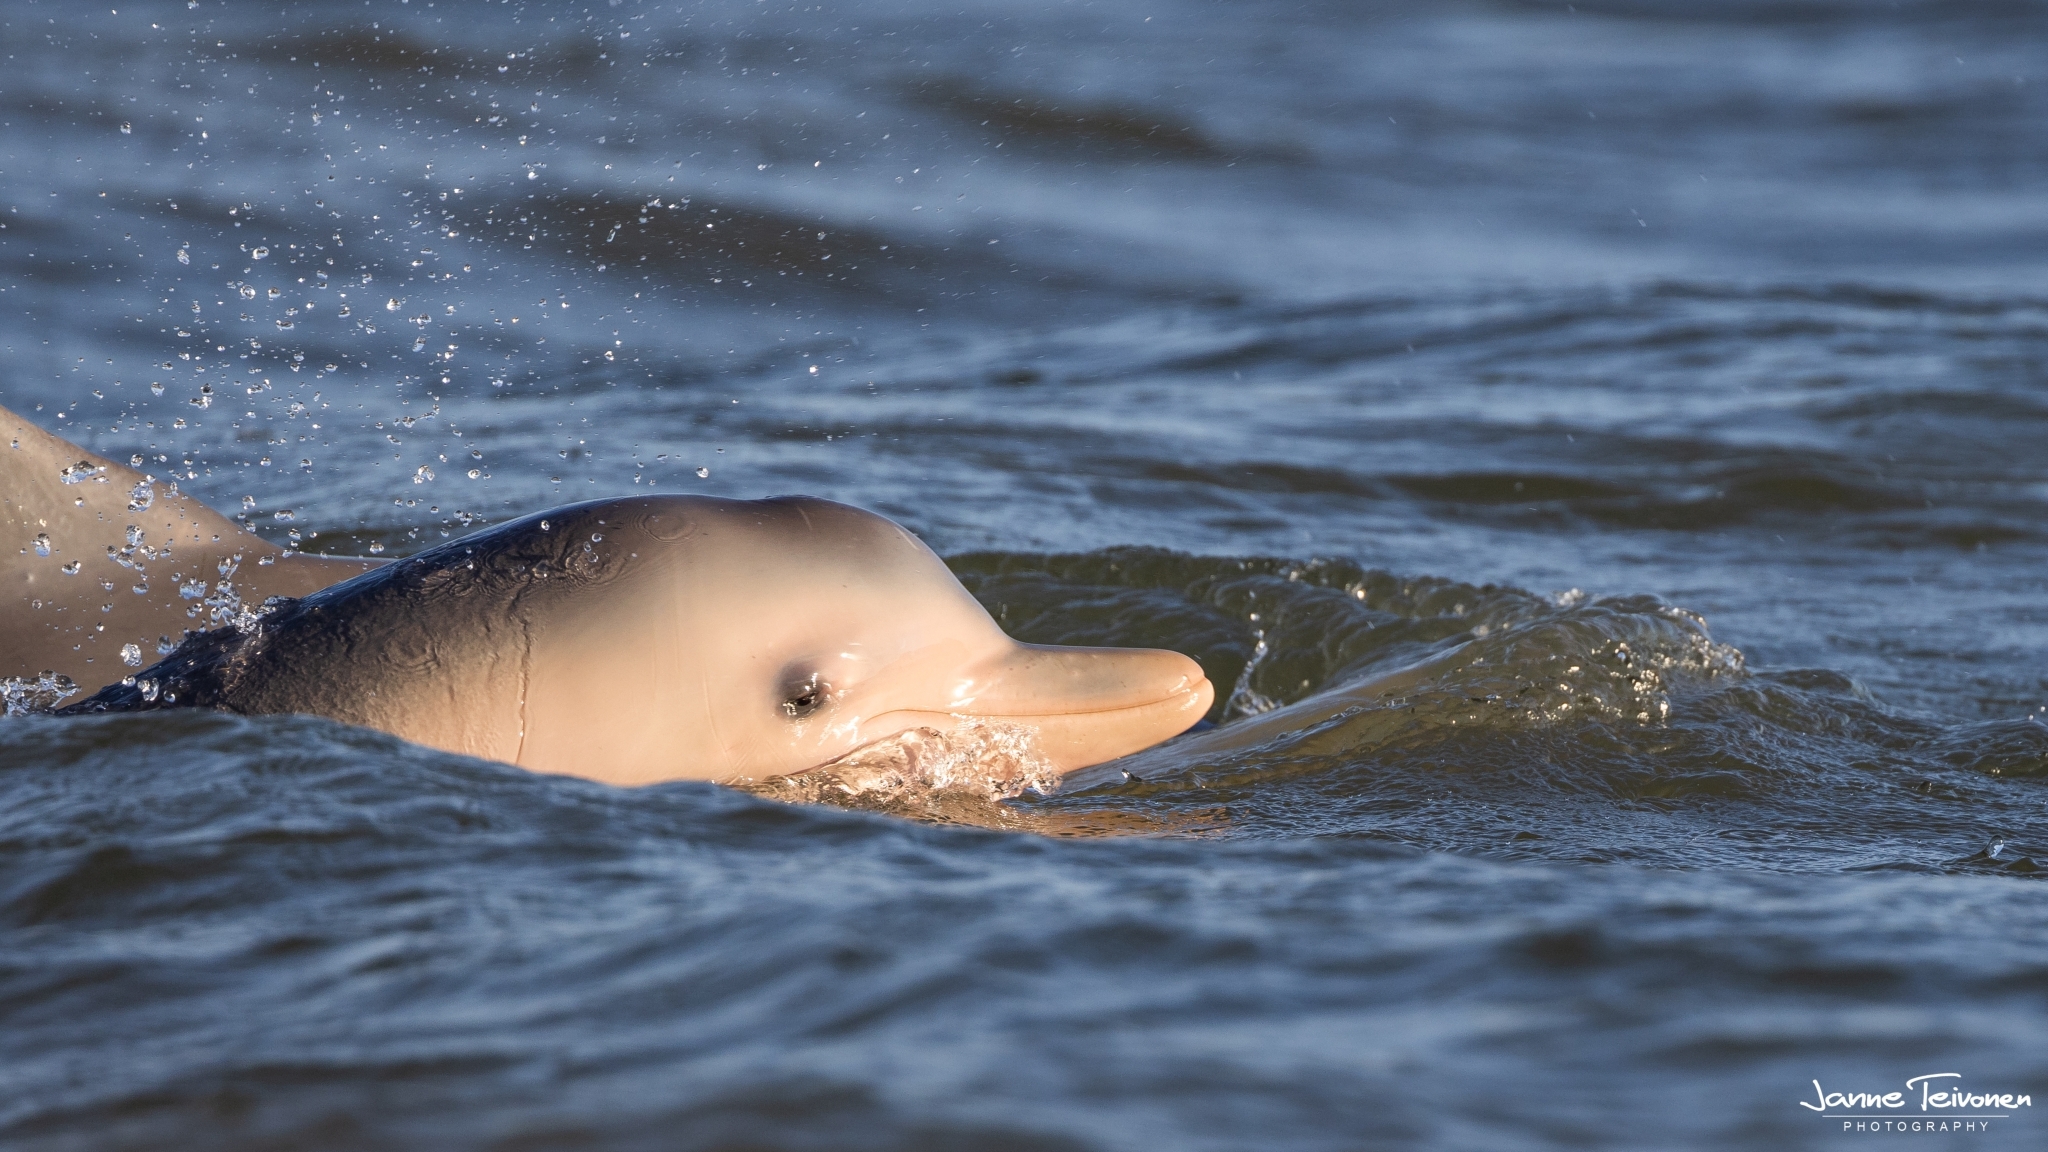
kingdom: Animalia
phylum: Chordata
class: Mammalia
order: Cetacea
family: Delphinidae
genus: Sotalia
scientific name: Sotalia guianensis
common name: Guiana dolphin
